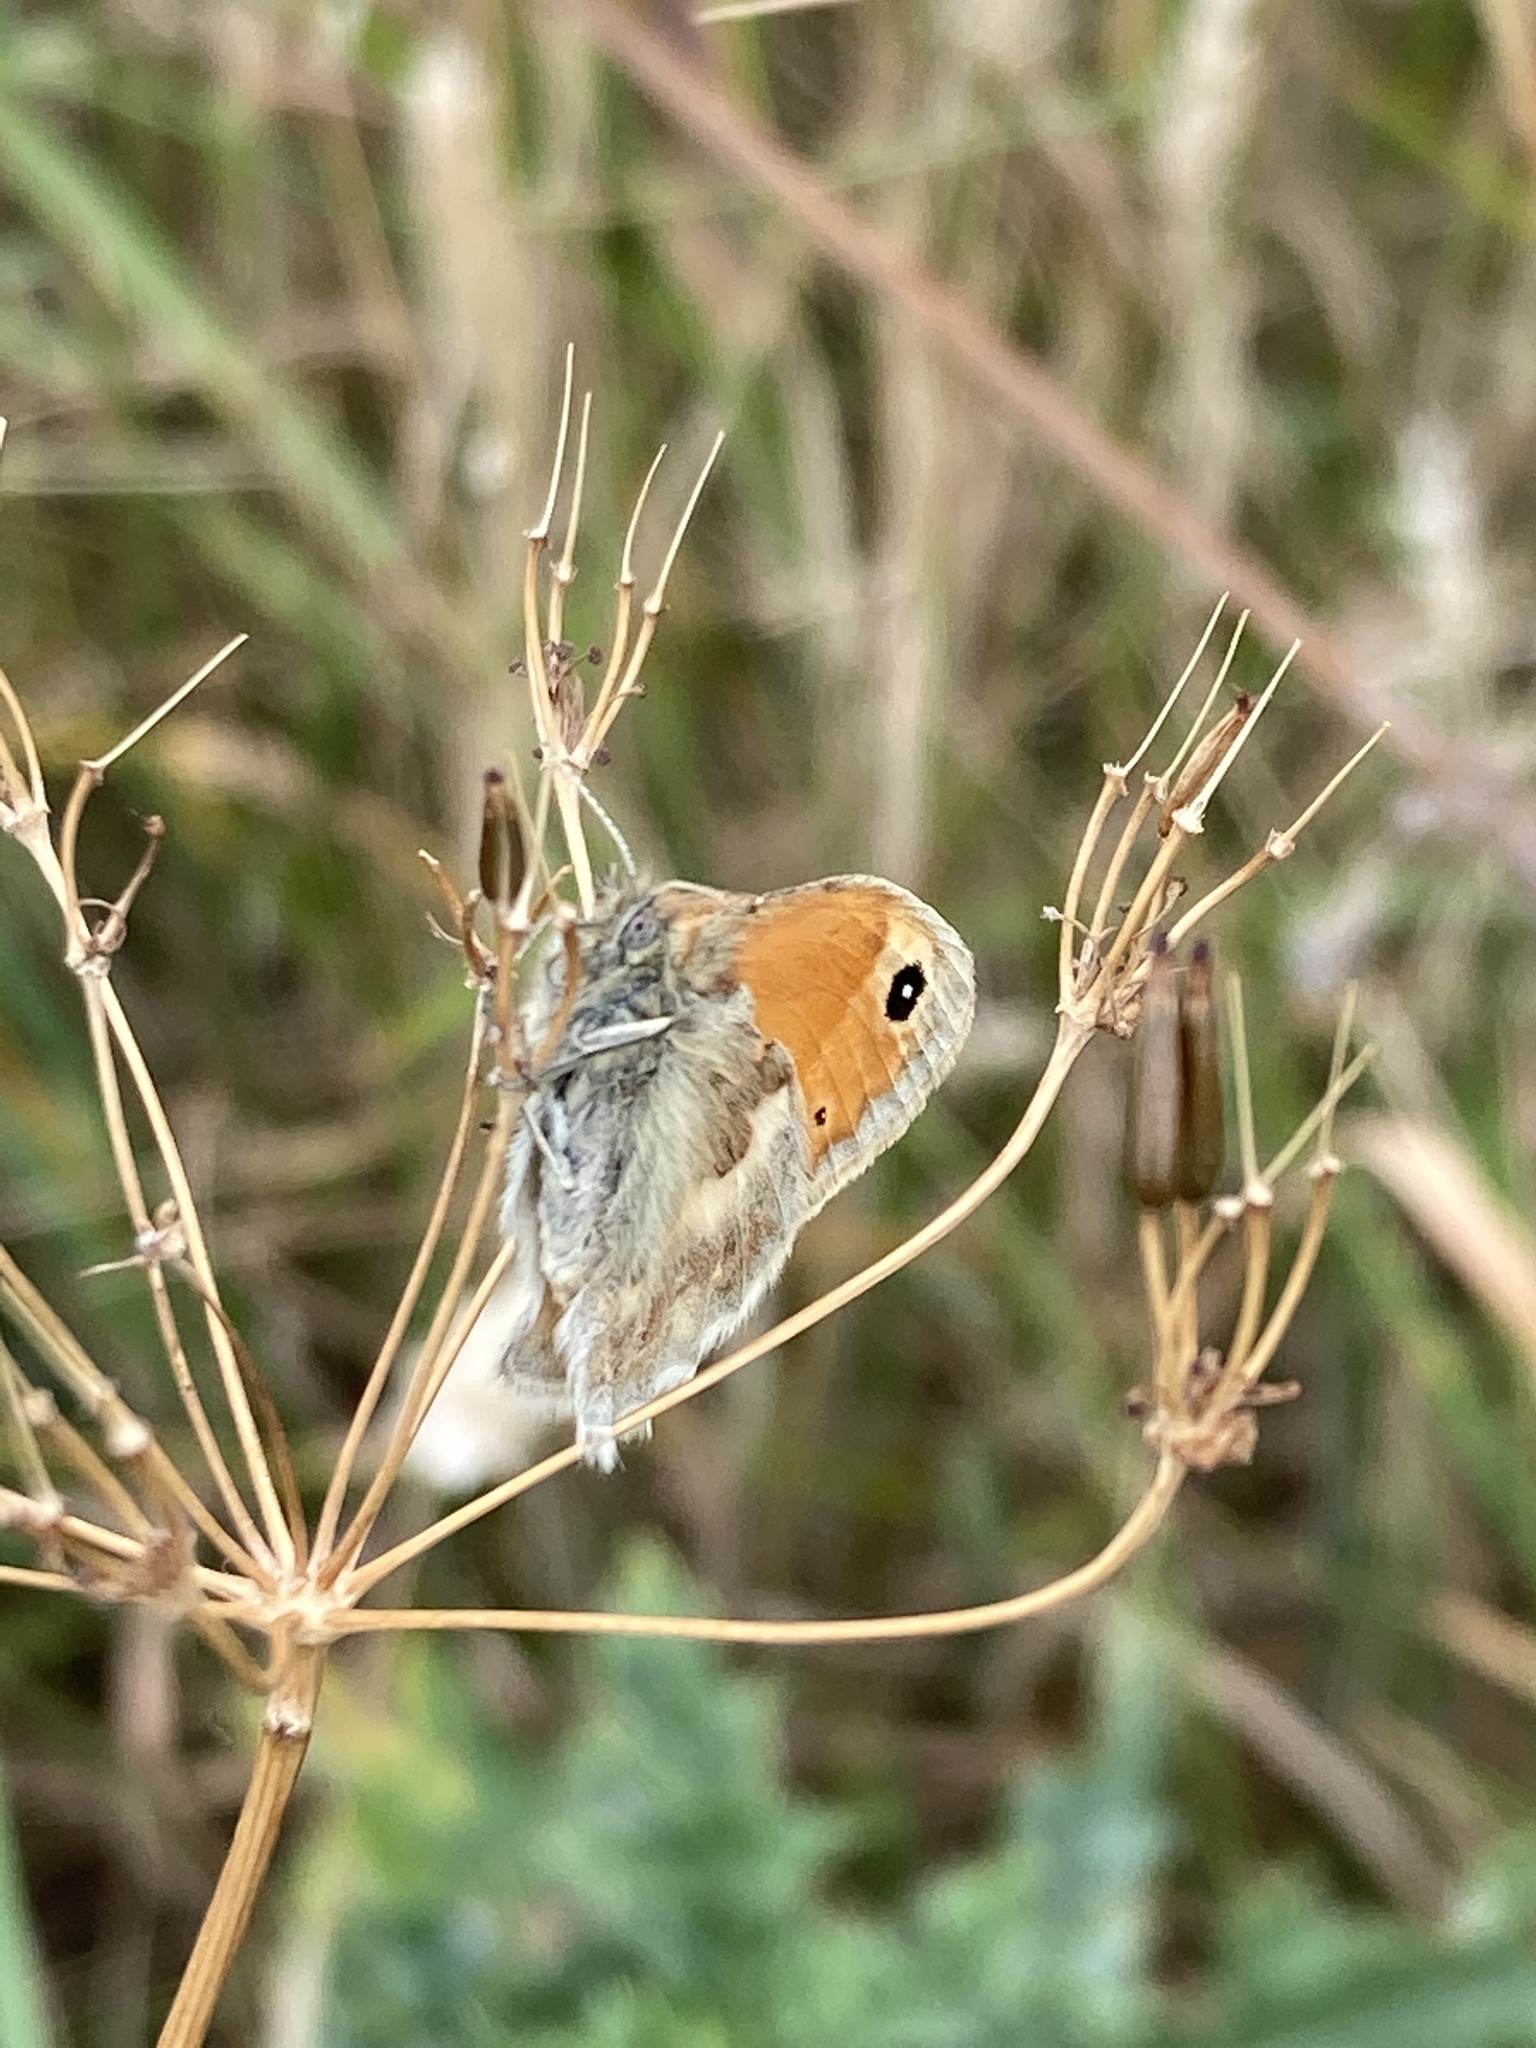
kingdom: Animalia
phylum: Arthropoda
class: Insecta
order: Lepidoptera
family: Nymphalidae
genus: Coenonympha
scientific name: Coenonympha pamphilus
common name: Small heath
